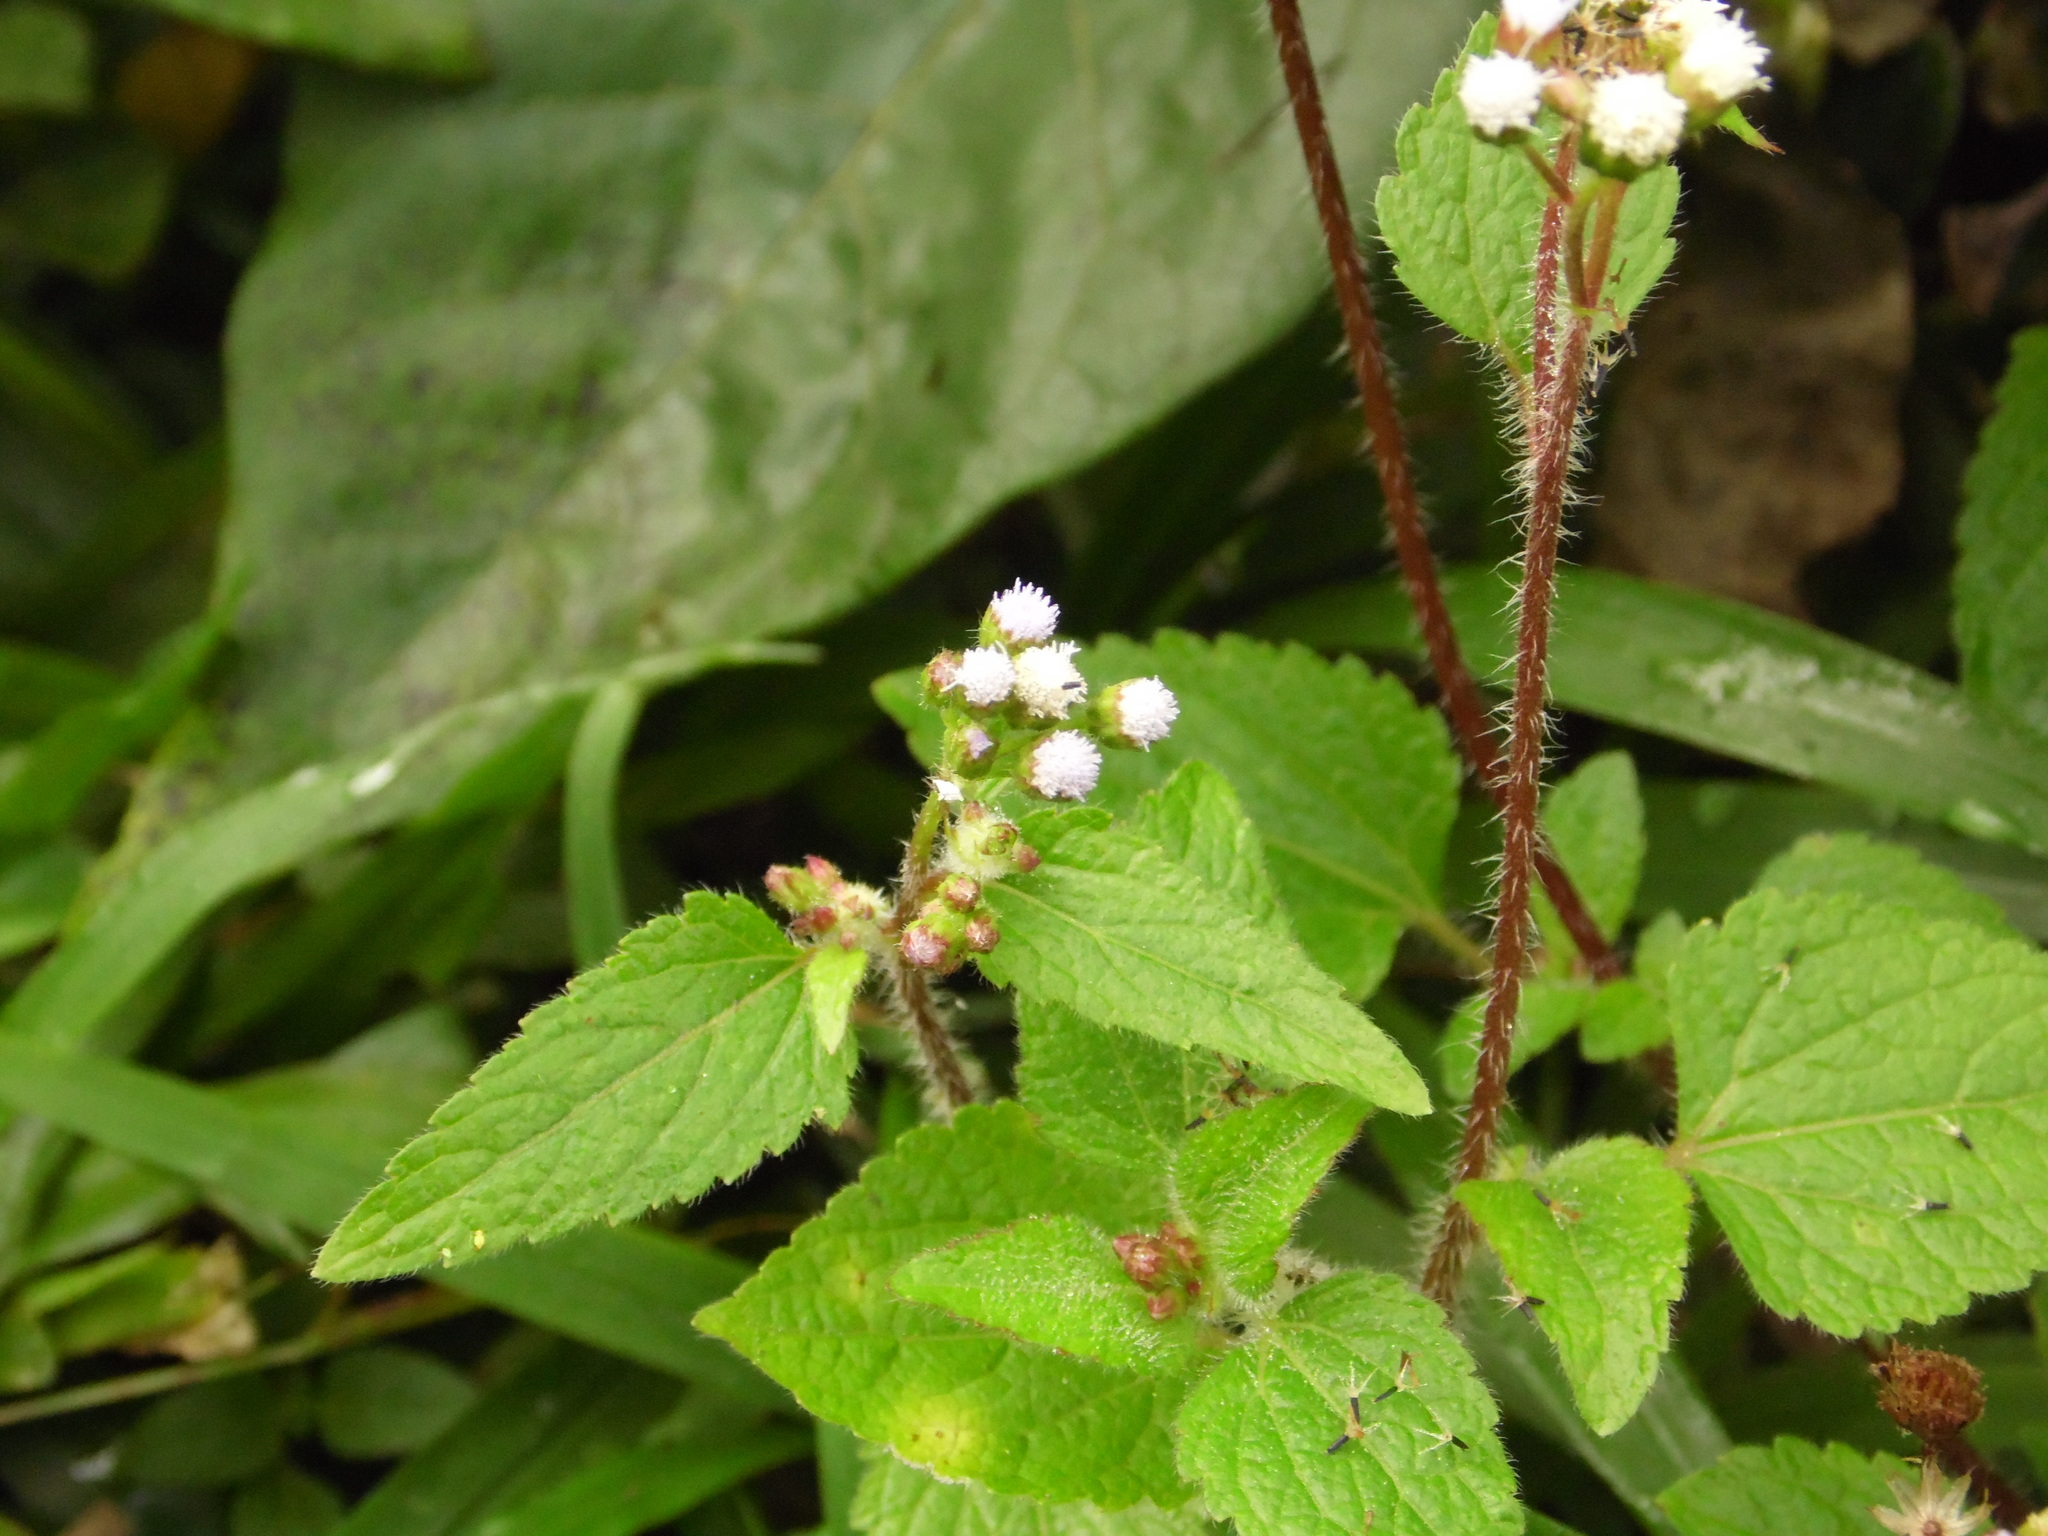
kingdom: Plantae
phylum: Tracheophyta
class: Magnoliopsida
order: Asterales
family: Asteraceae
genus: Ageratum
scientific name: Ageratum conyzoides
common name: Tropical whiteweed
